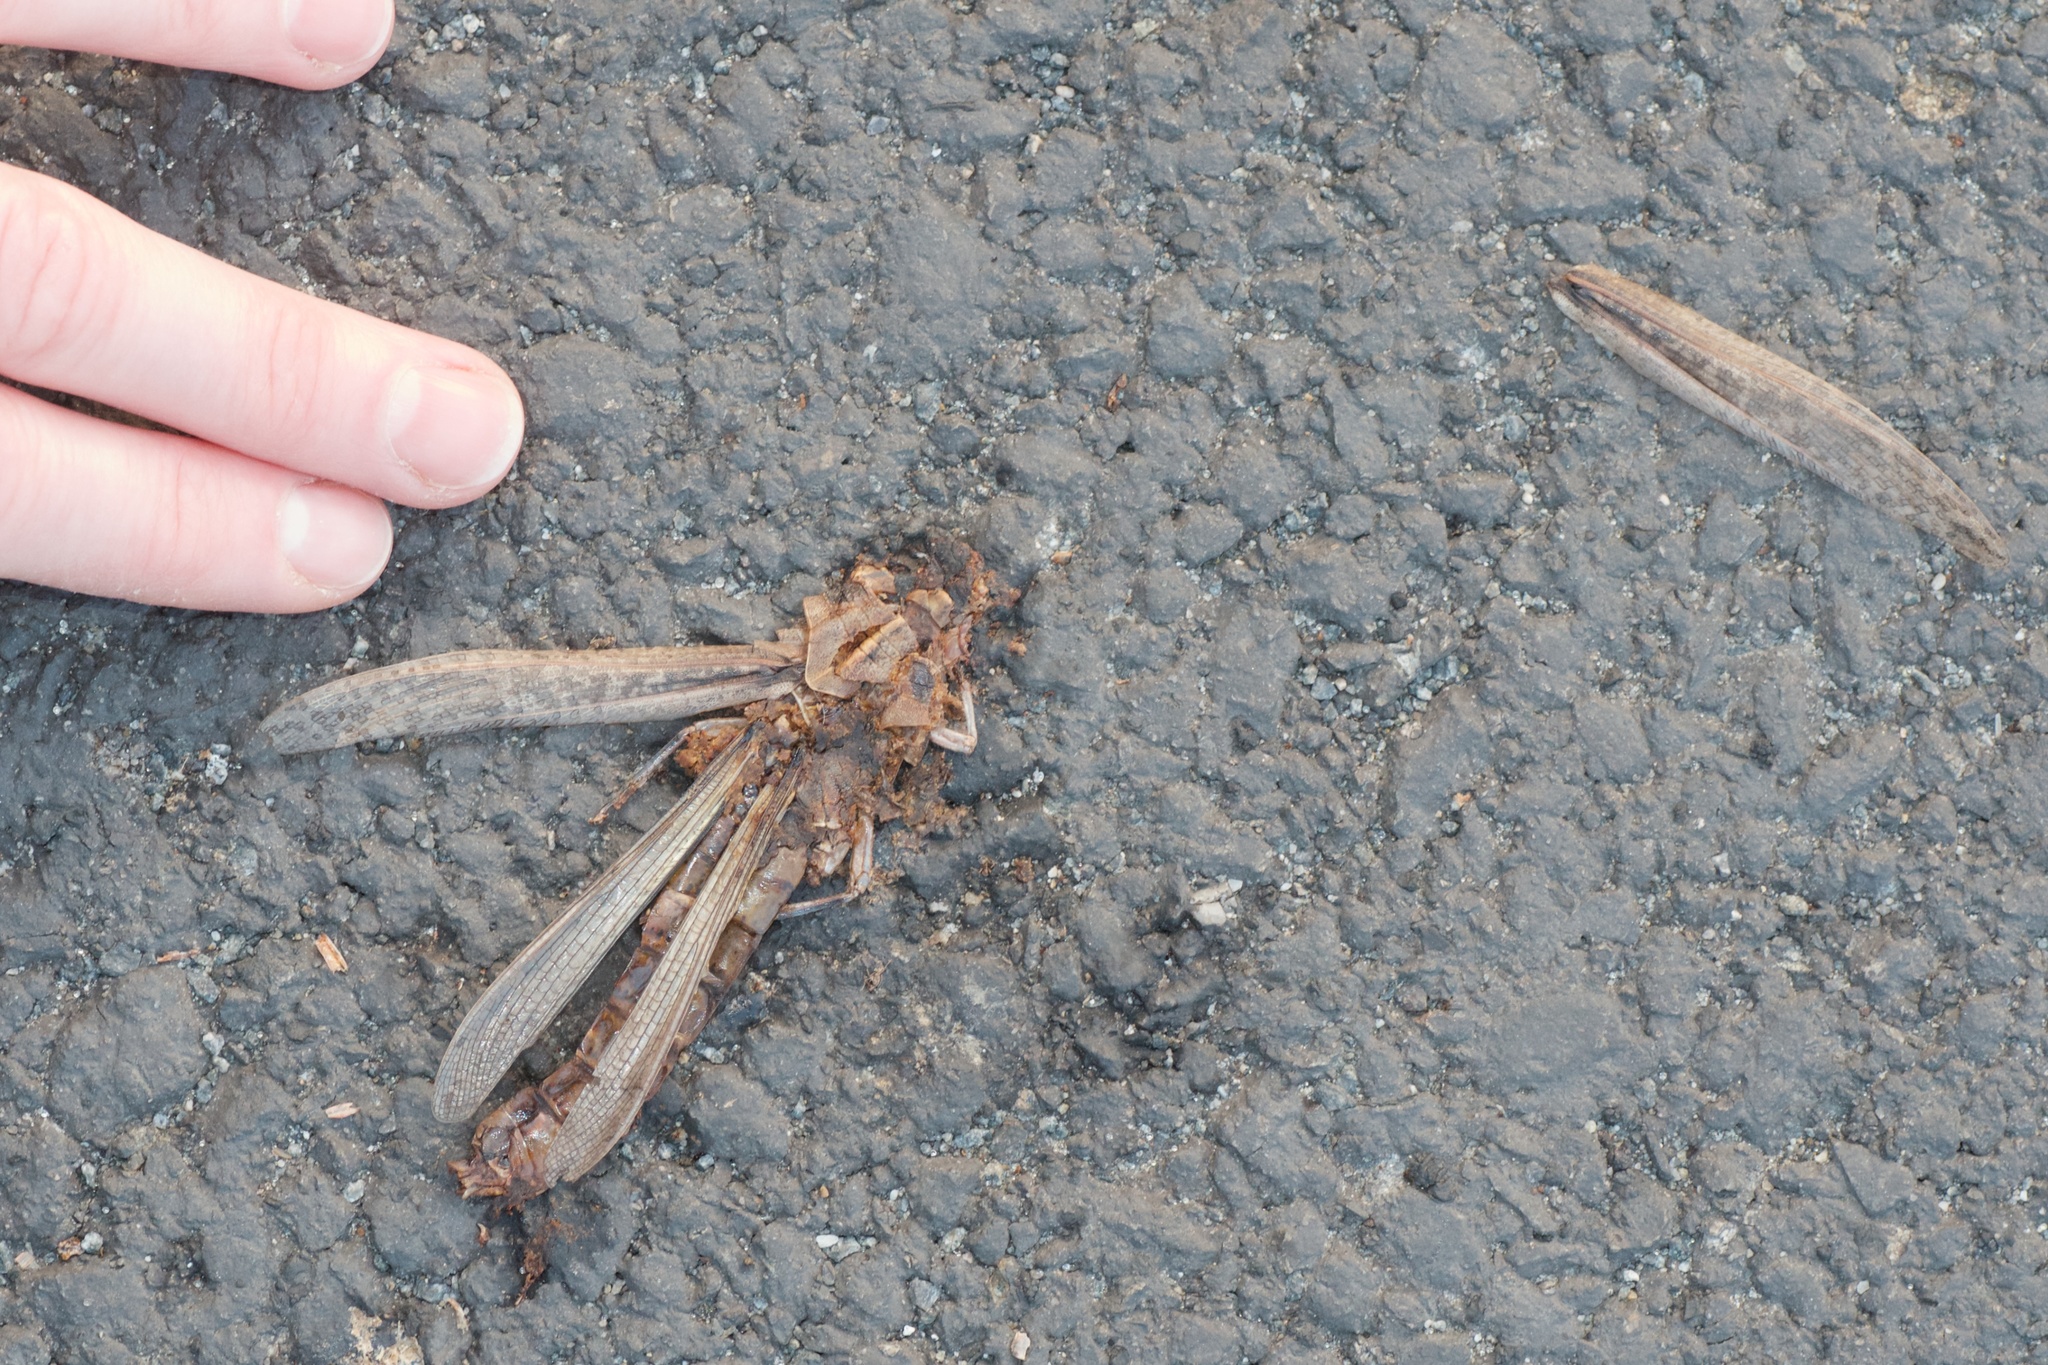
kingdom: Animalia
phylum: Arthropoda
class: Insecta
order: Orthoptera
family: Acrididae
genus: Schistocerca
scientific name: Schistocerca nitens
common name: Vagrant grasshopper
